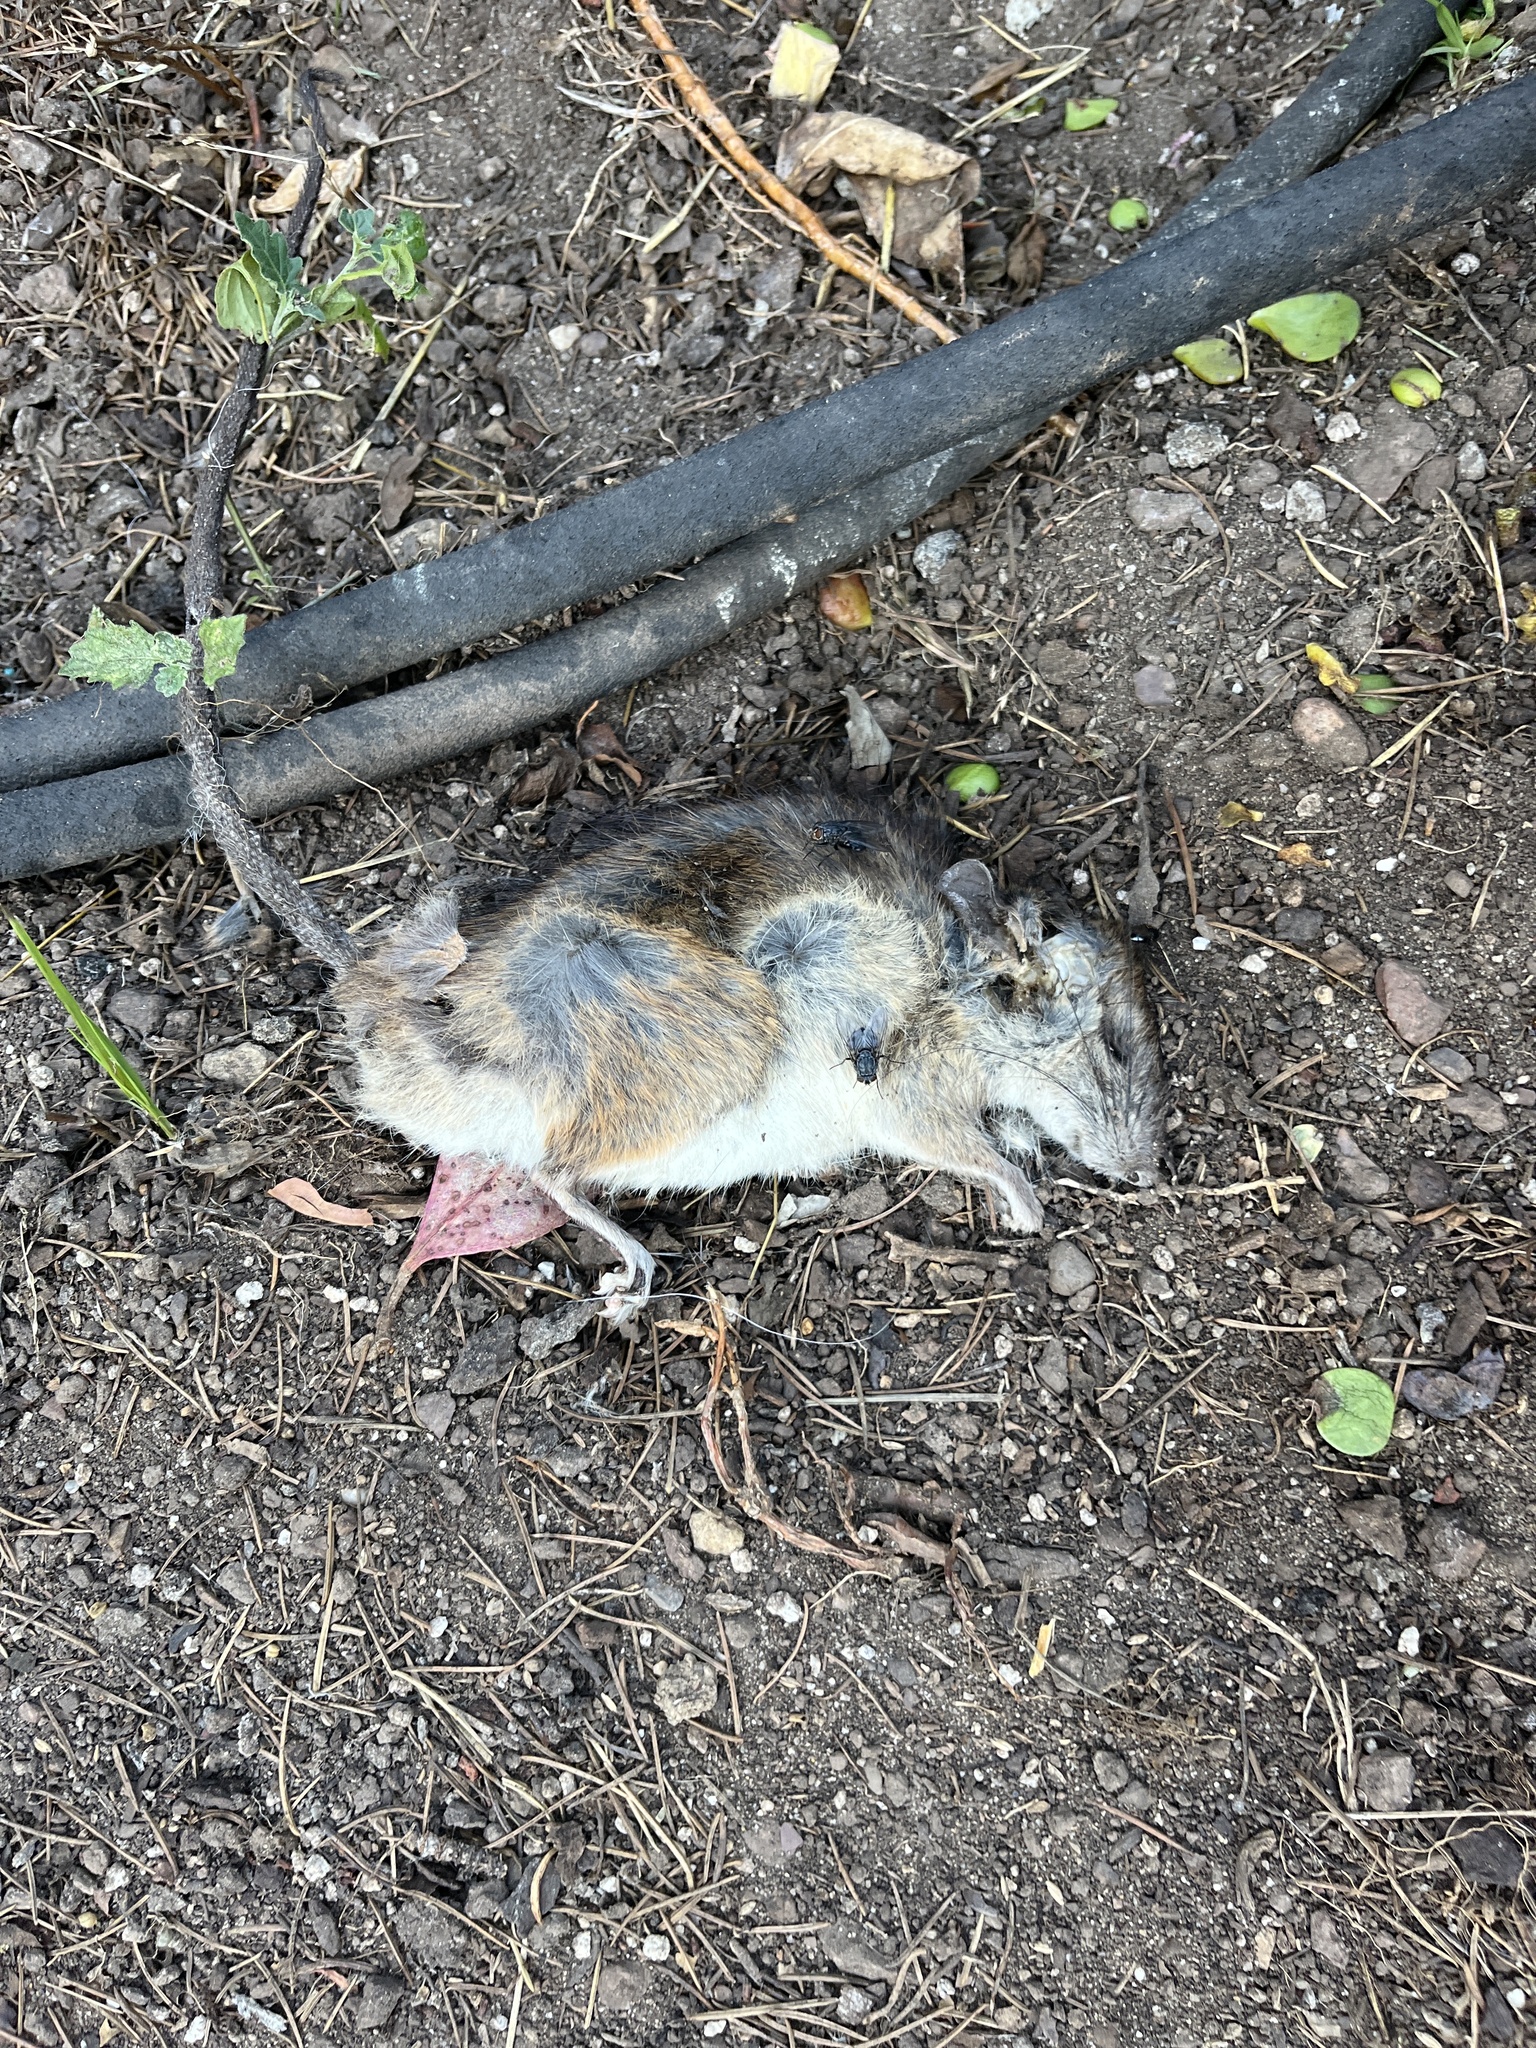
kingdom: Animalia
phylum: Chordata
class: Mammalia
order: Rodentia
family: Muridae
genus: Rattus
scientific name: Rattus rattus
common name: Black rat
